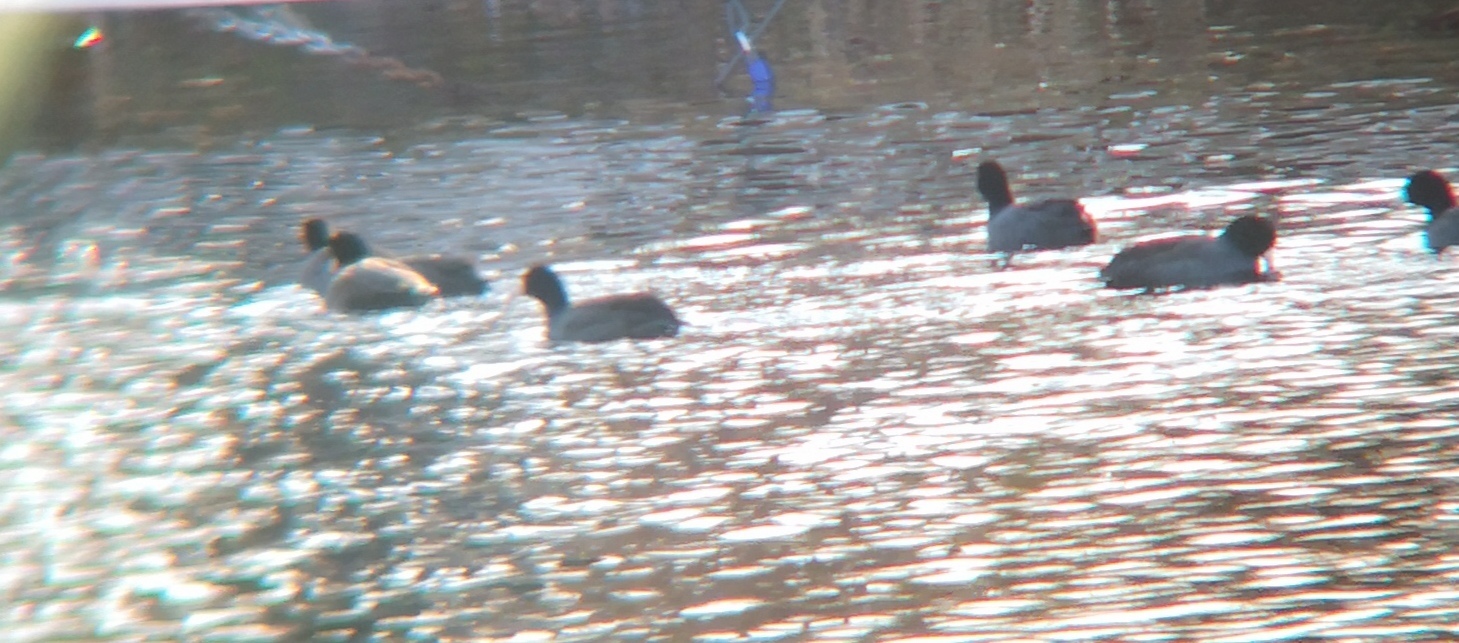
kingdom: Animalia
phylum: Chordata
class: Aves
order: Gruiformes
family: Rallidae
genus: Fulica
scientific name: Fulica americana
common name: American coot
